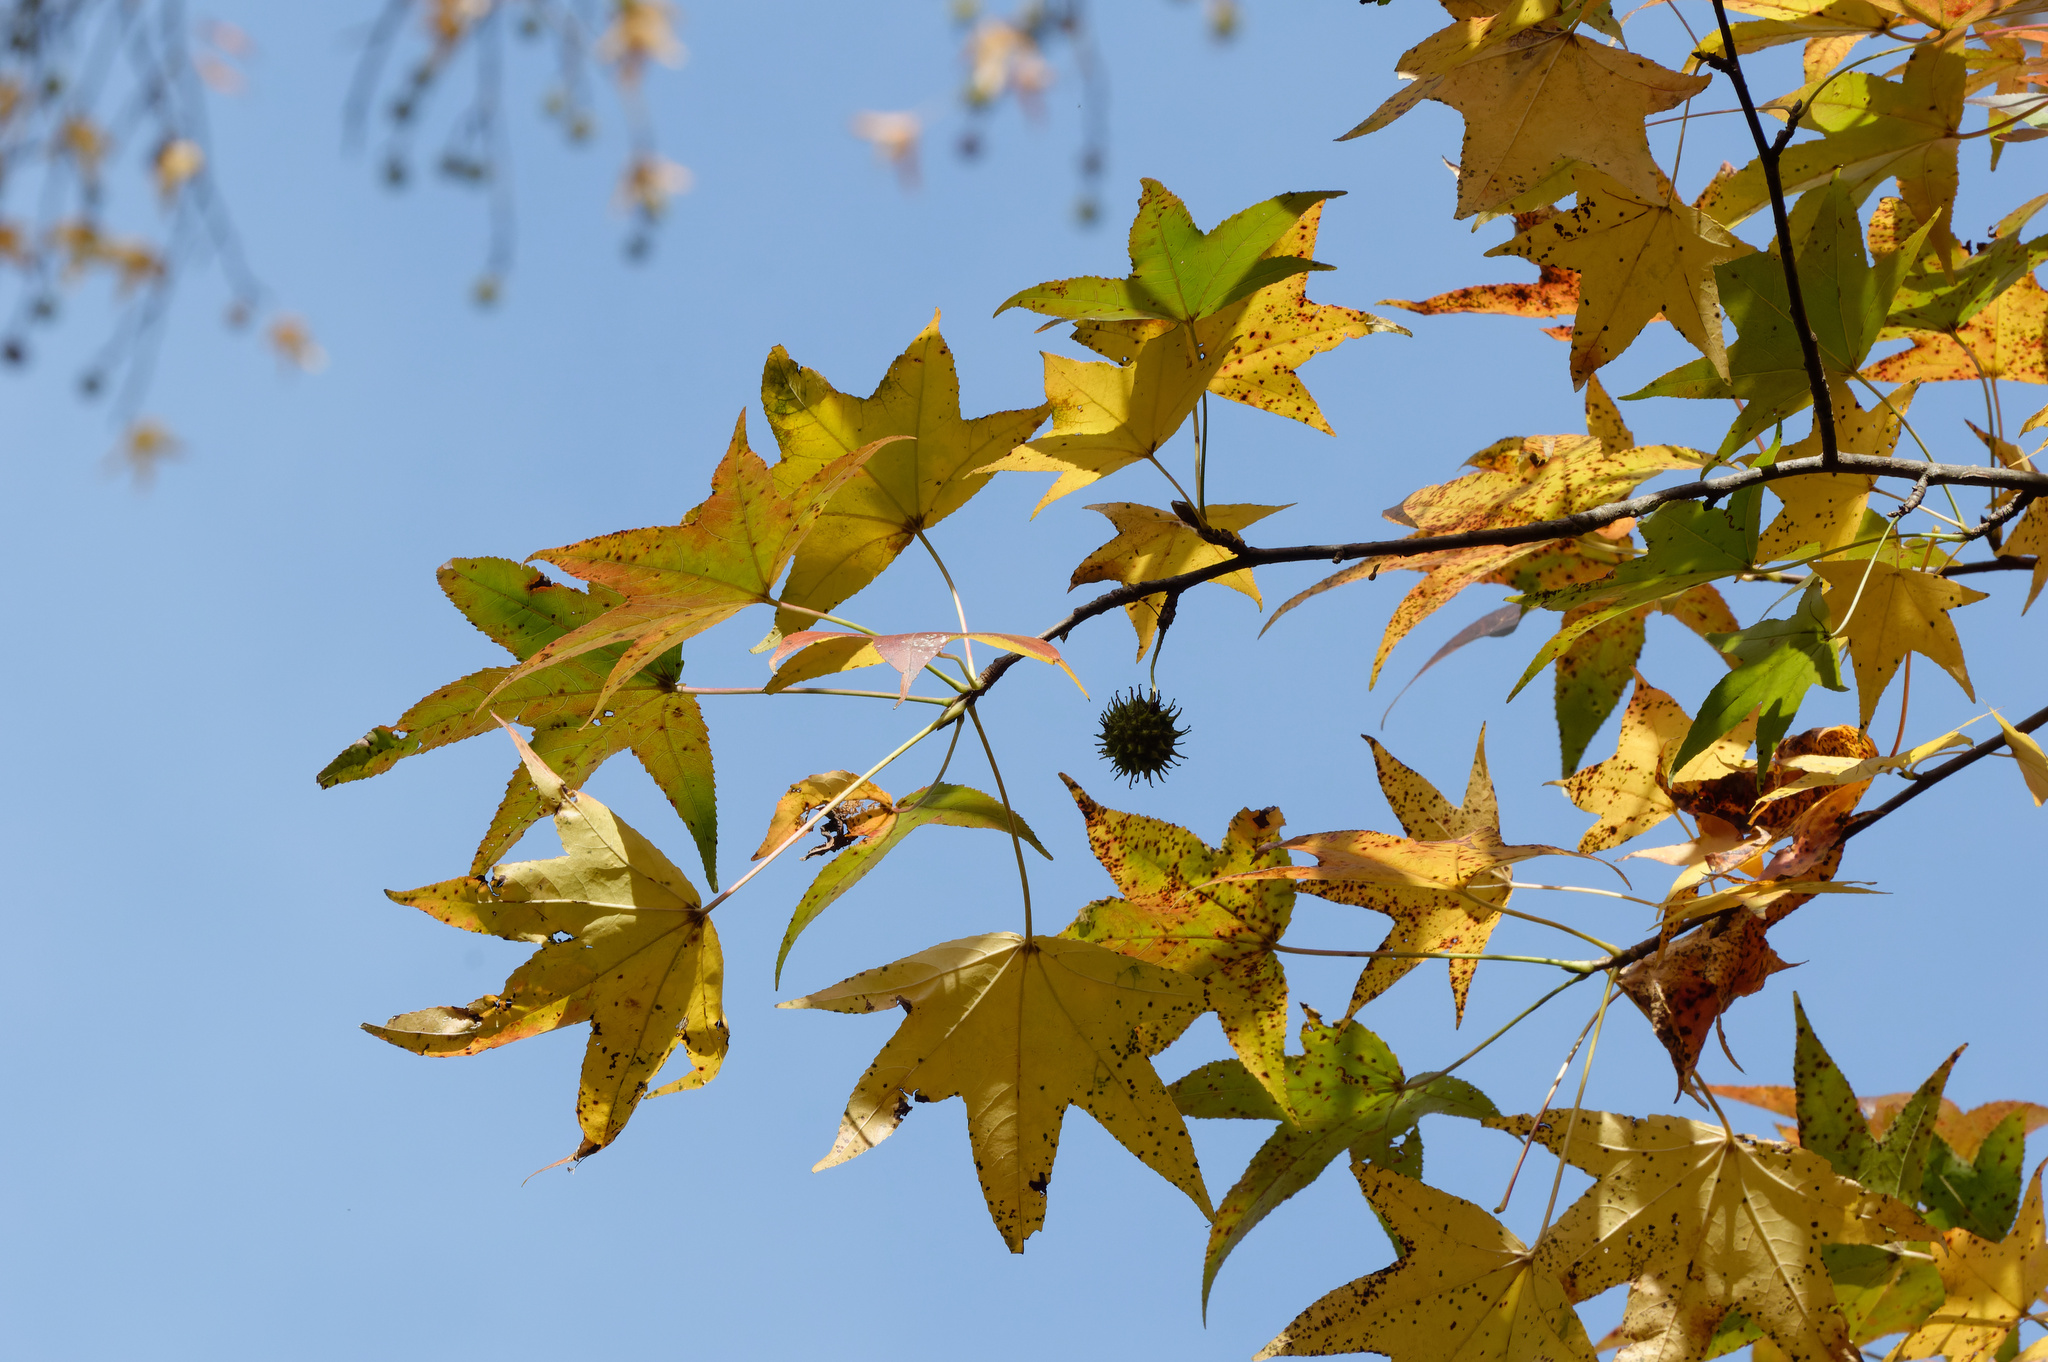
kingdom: Plantae
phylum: Tracheophyta
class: Magnoliopsida
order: Saxifragales
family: Altingiaceae
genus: Liquidambar
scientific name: Liquidambar styraciflua
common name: Sweet gum
